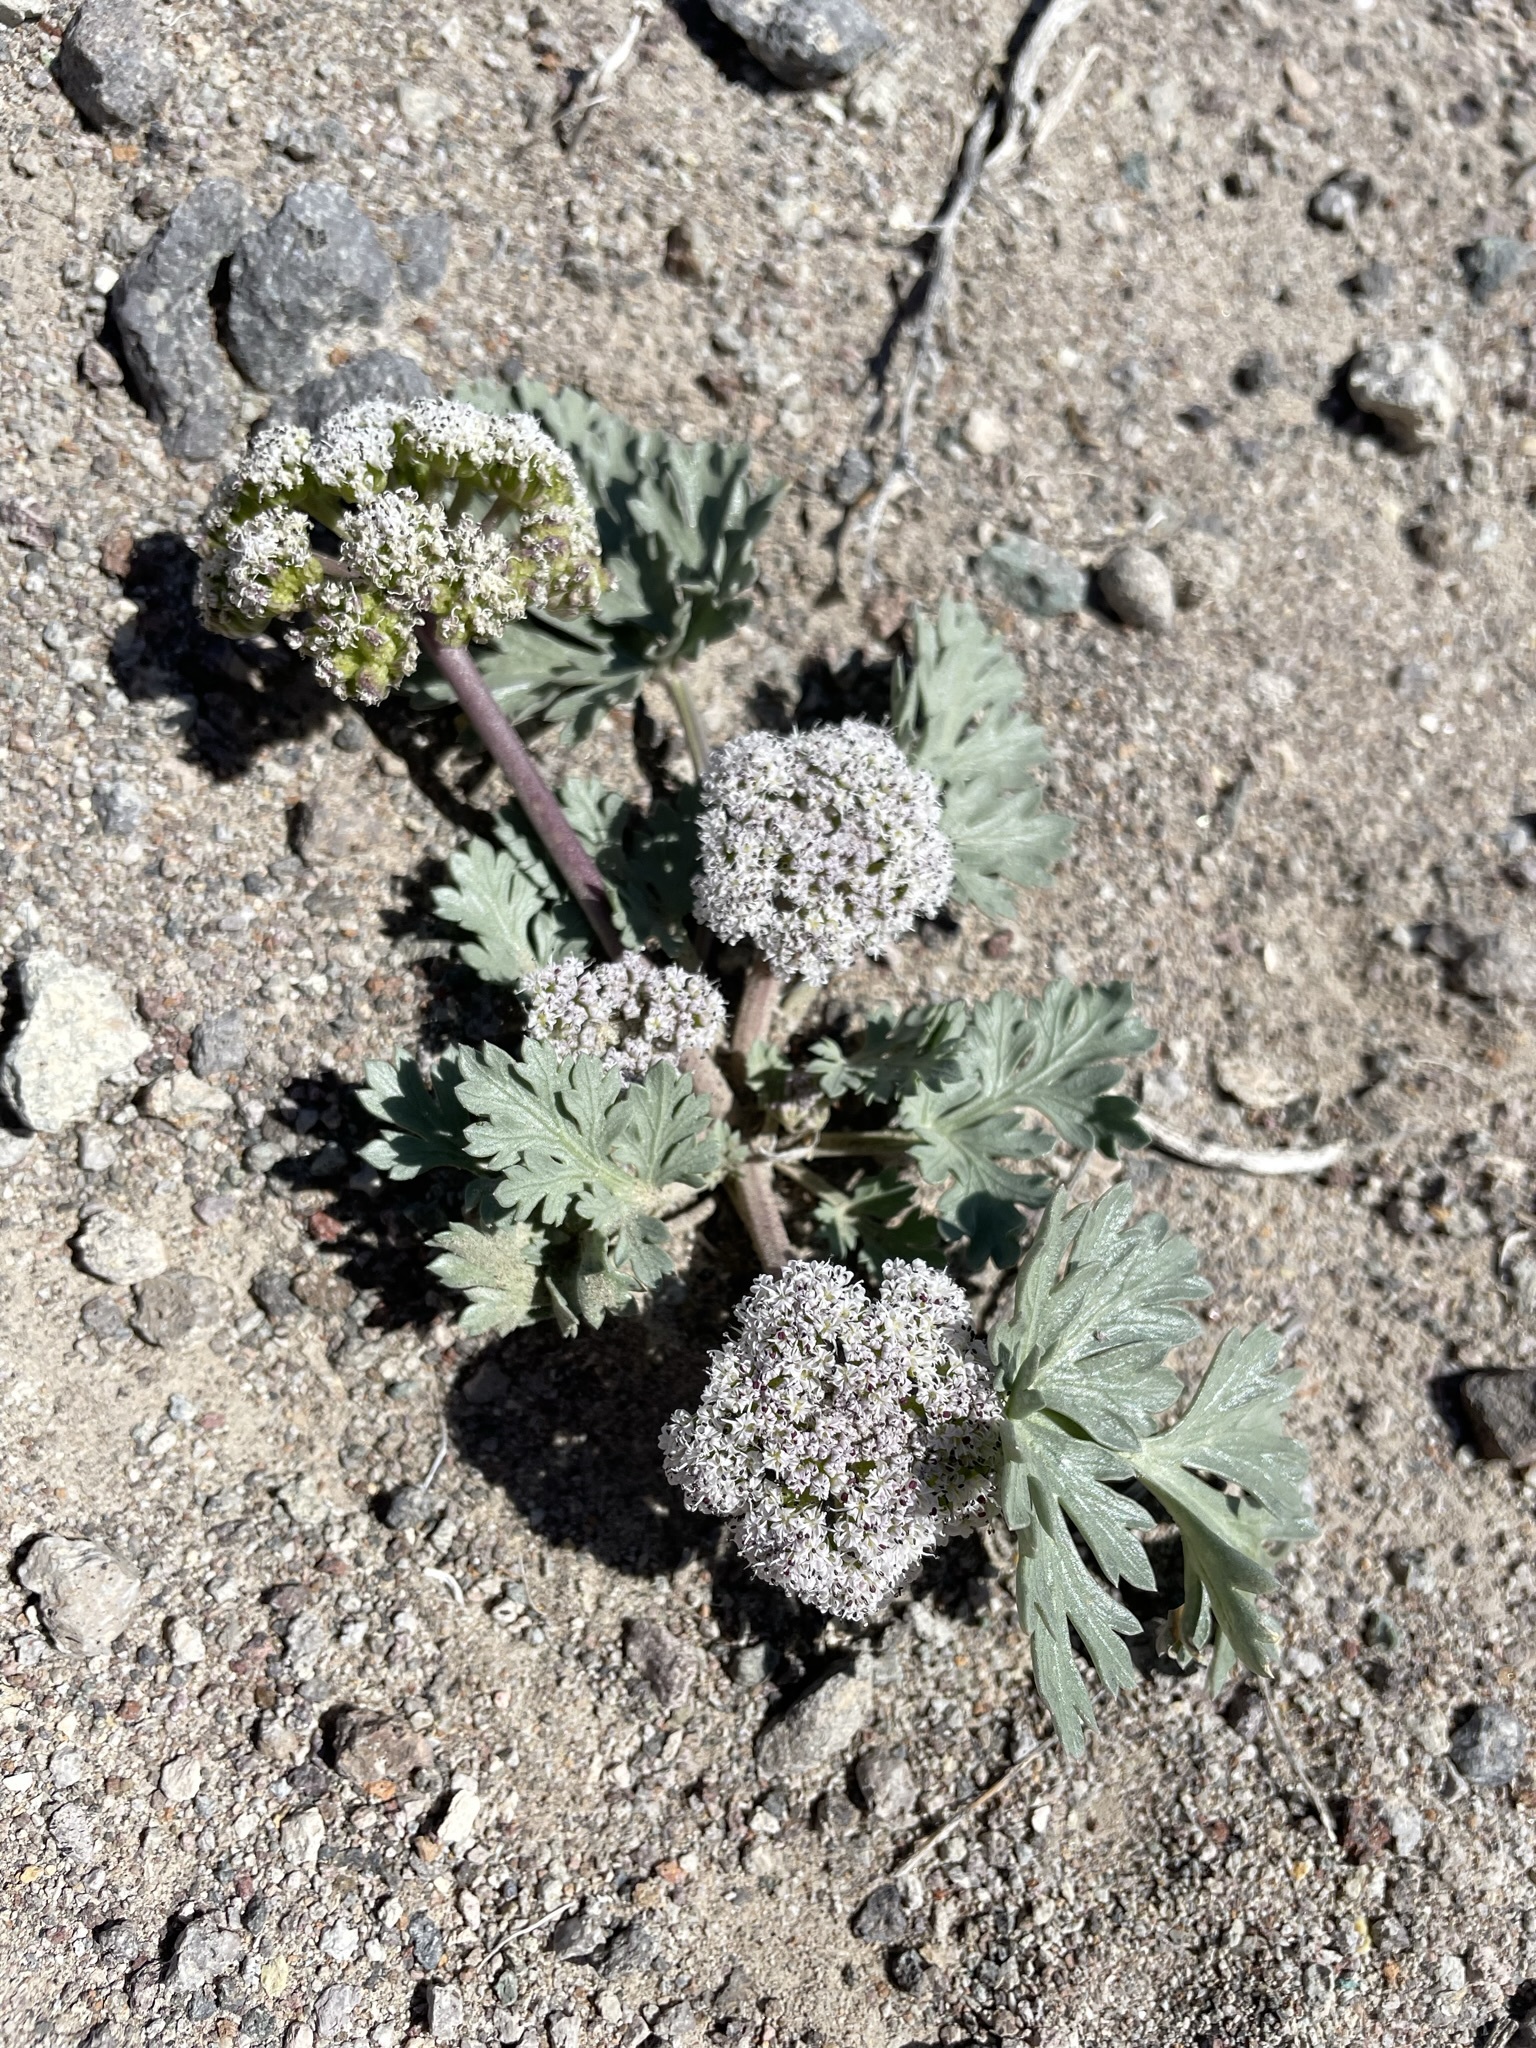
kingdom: Plantae
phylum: Tracheophyta
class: Magnoliopsida
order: Apiales
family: Apiaceae
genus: Rhysopterus
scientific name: Rhysopterus plurijugus
